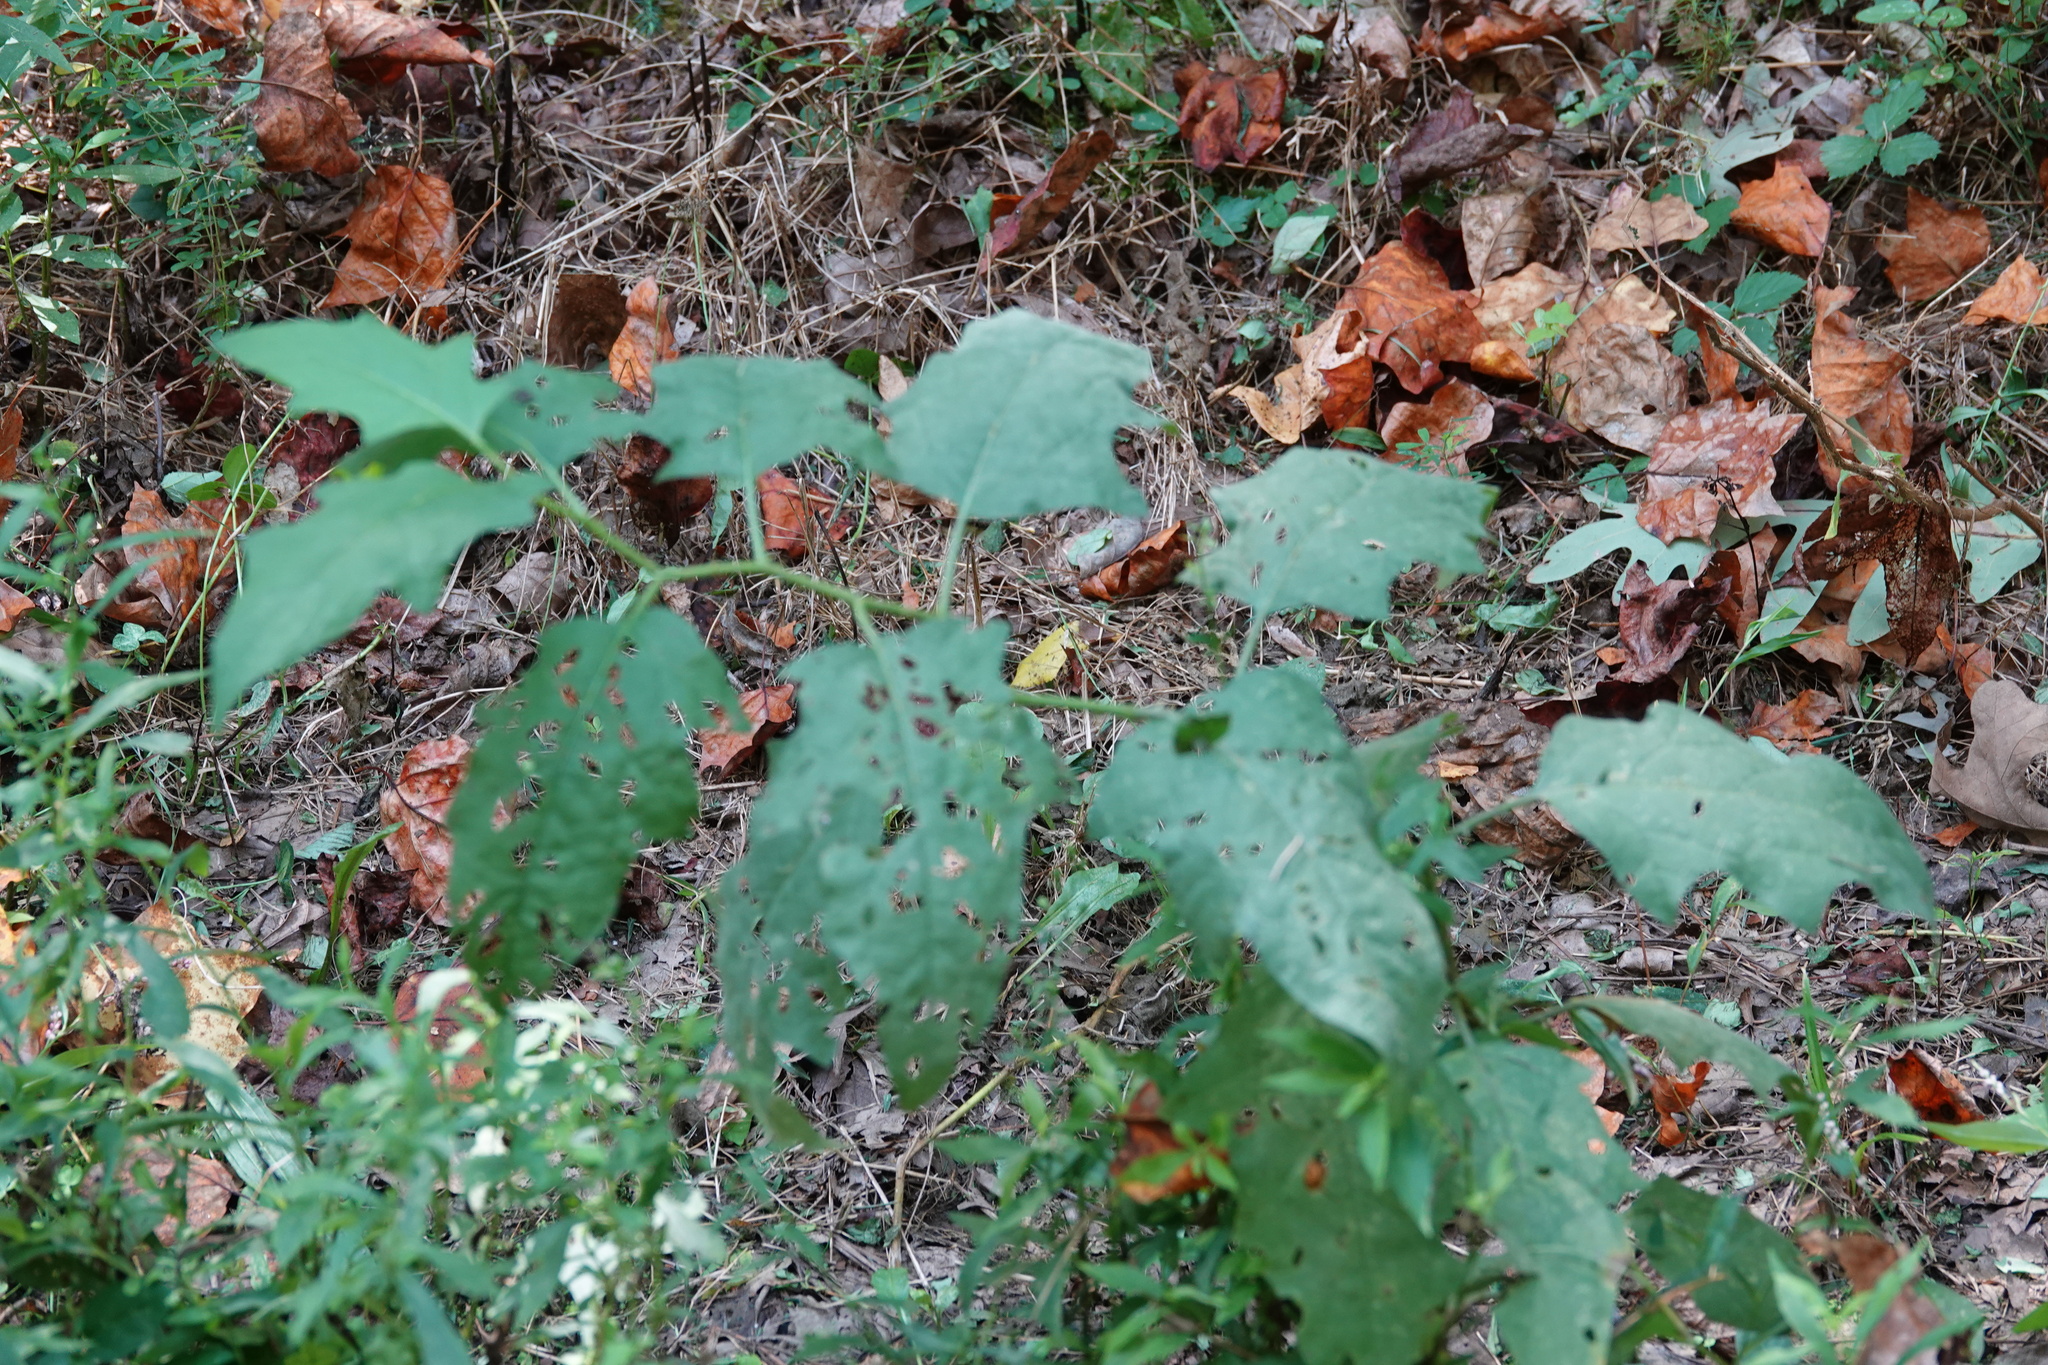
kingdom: Plantae
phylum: Tracheophyta
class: Magnoliopsida
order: Solanales
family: Solanaceae
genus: Solanum
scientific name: Solanum carolinense
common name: Horse-nettle
